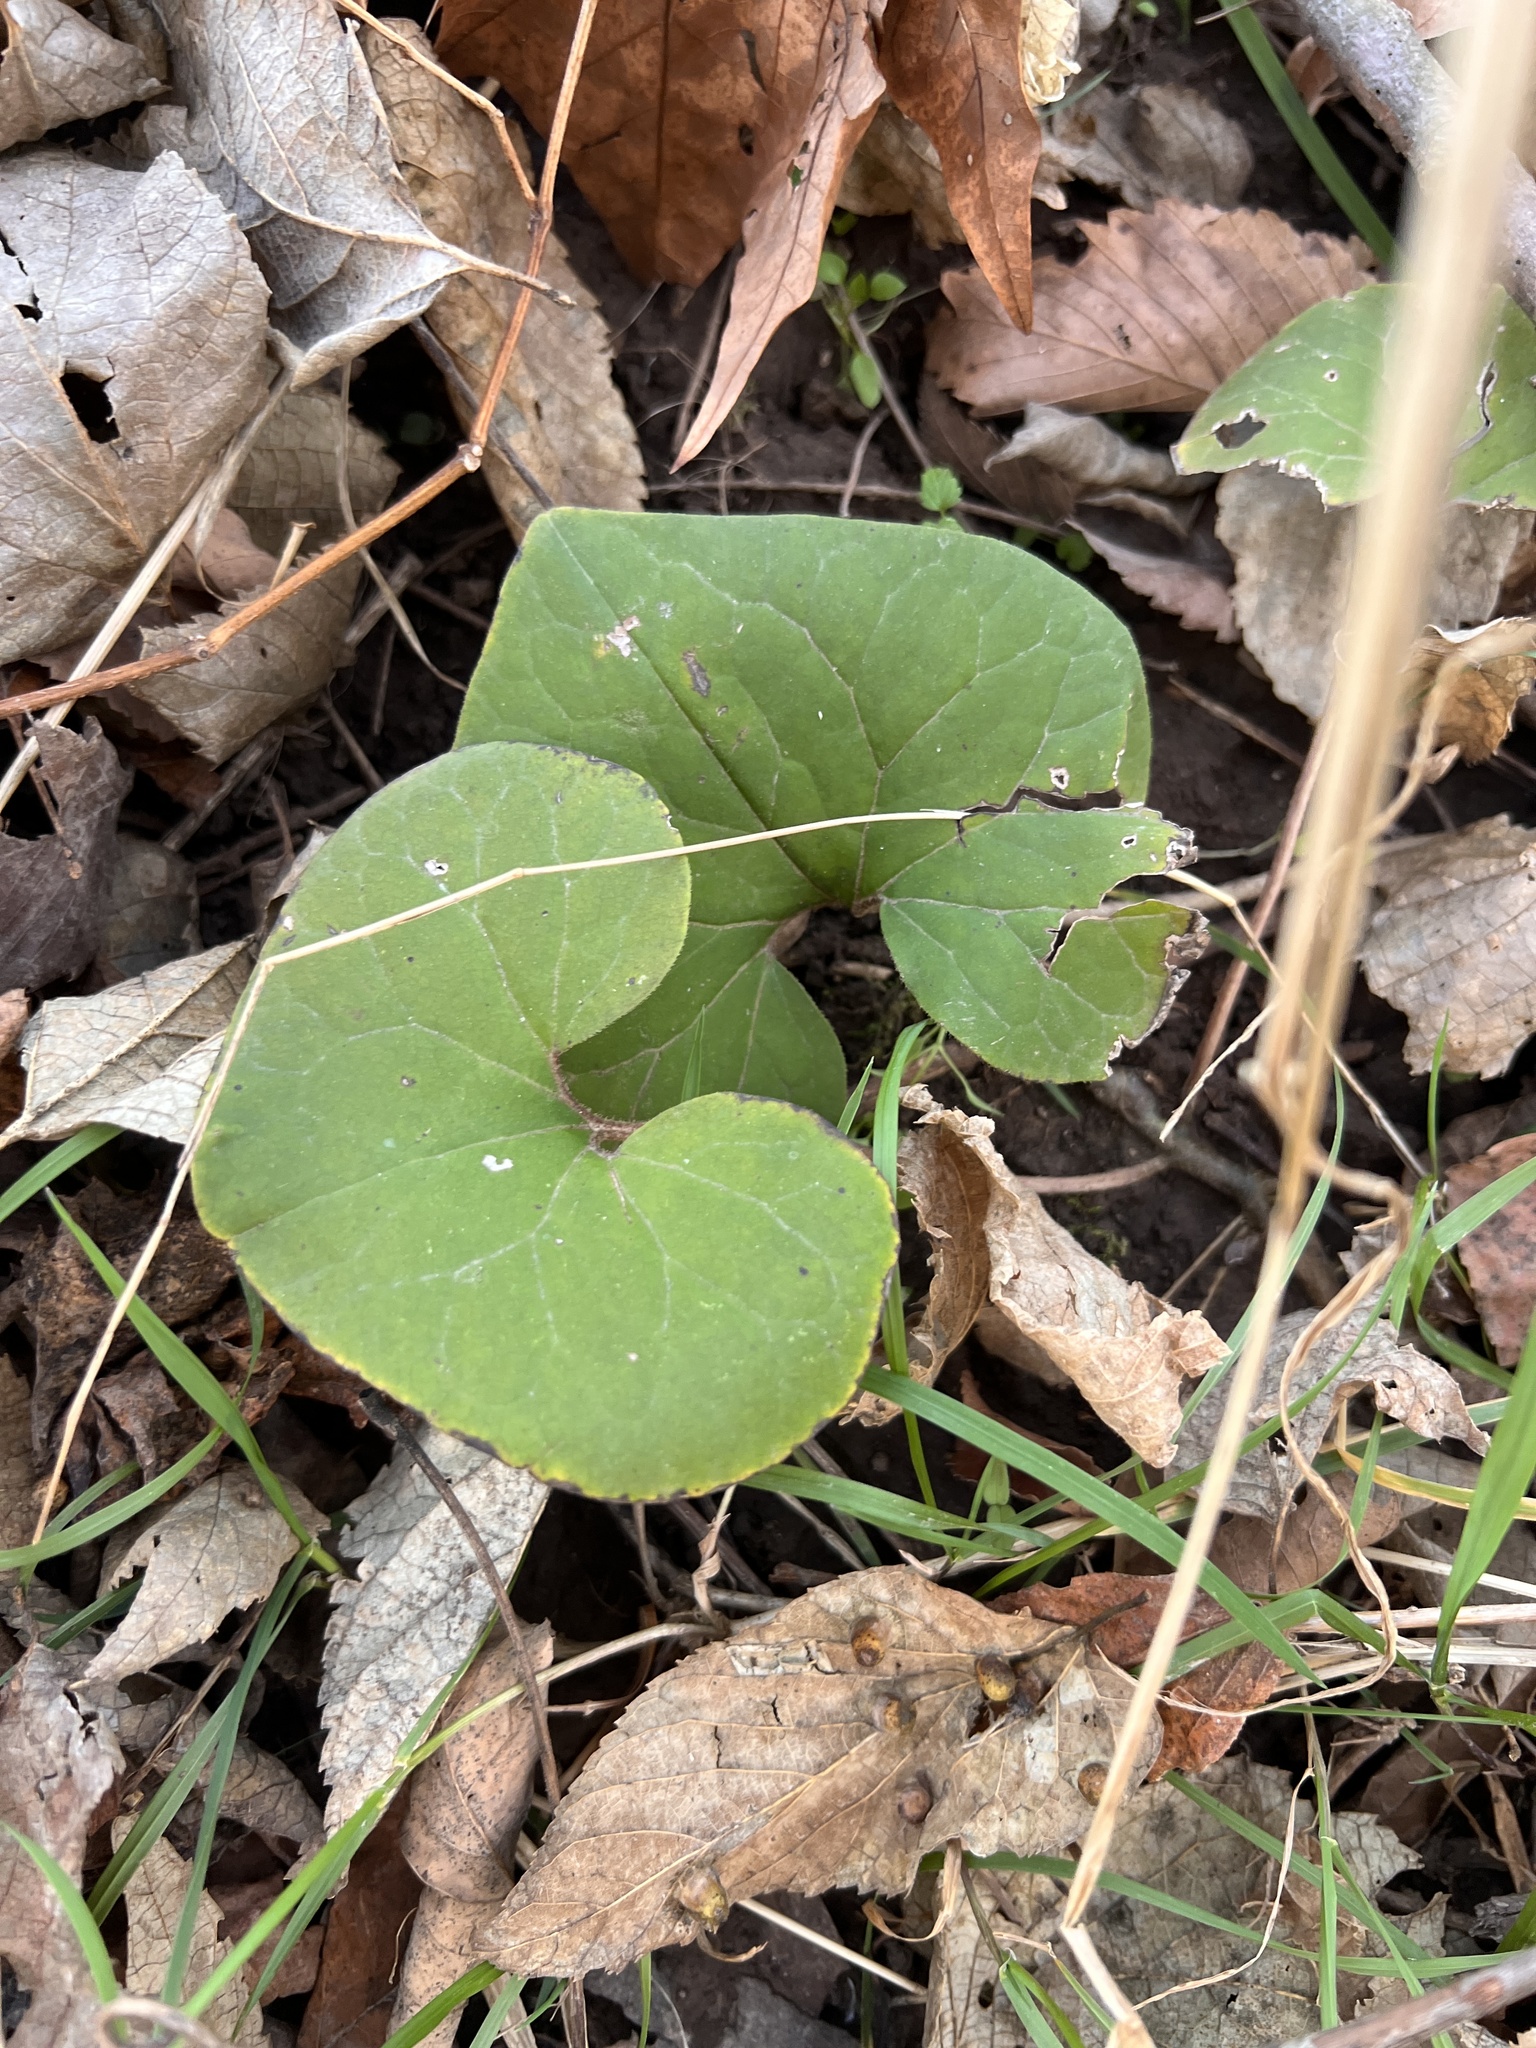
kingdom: Plantae
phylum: Tracheophyta
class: Magnoliopsida
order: Piperales
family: Aristolochiaceae
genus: Asarum
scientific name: Asarum canadense
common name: Wild ginger
